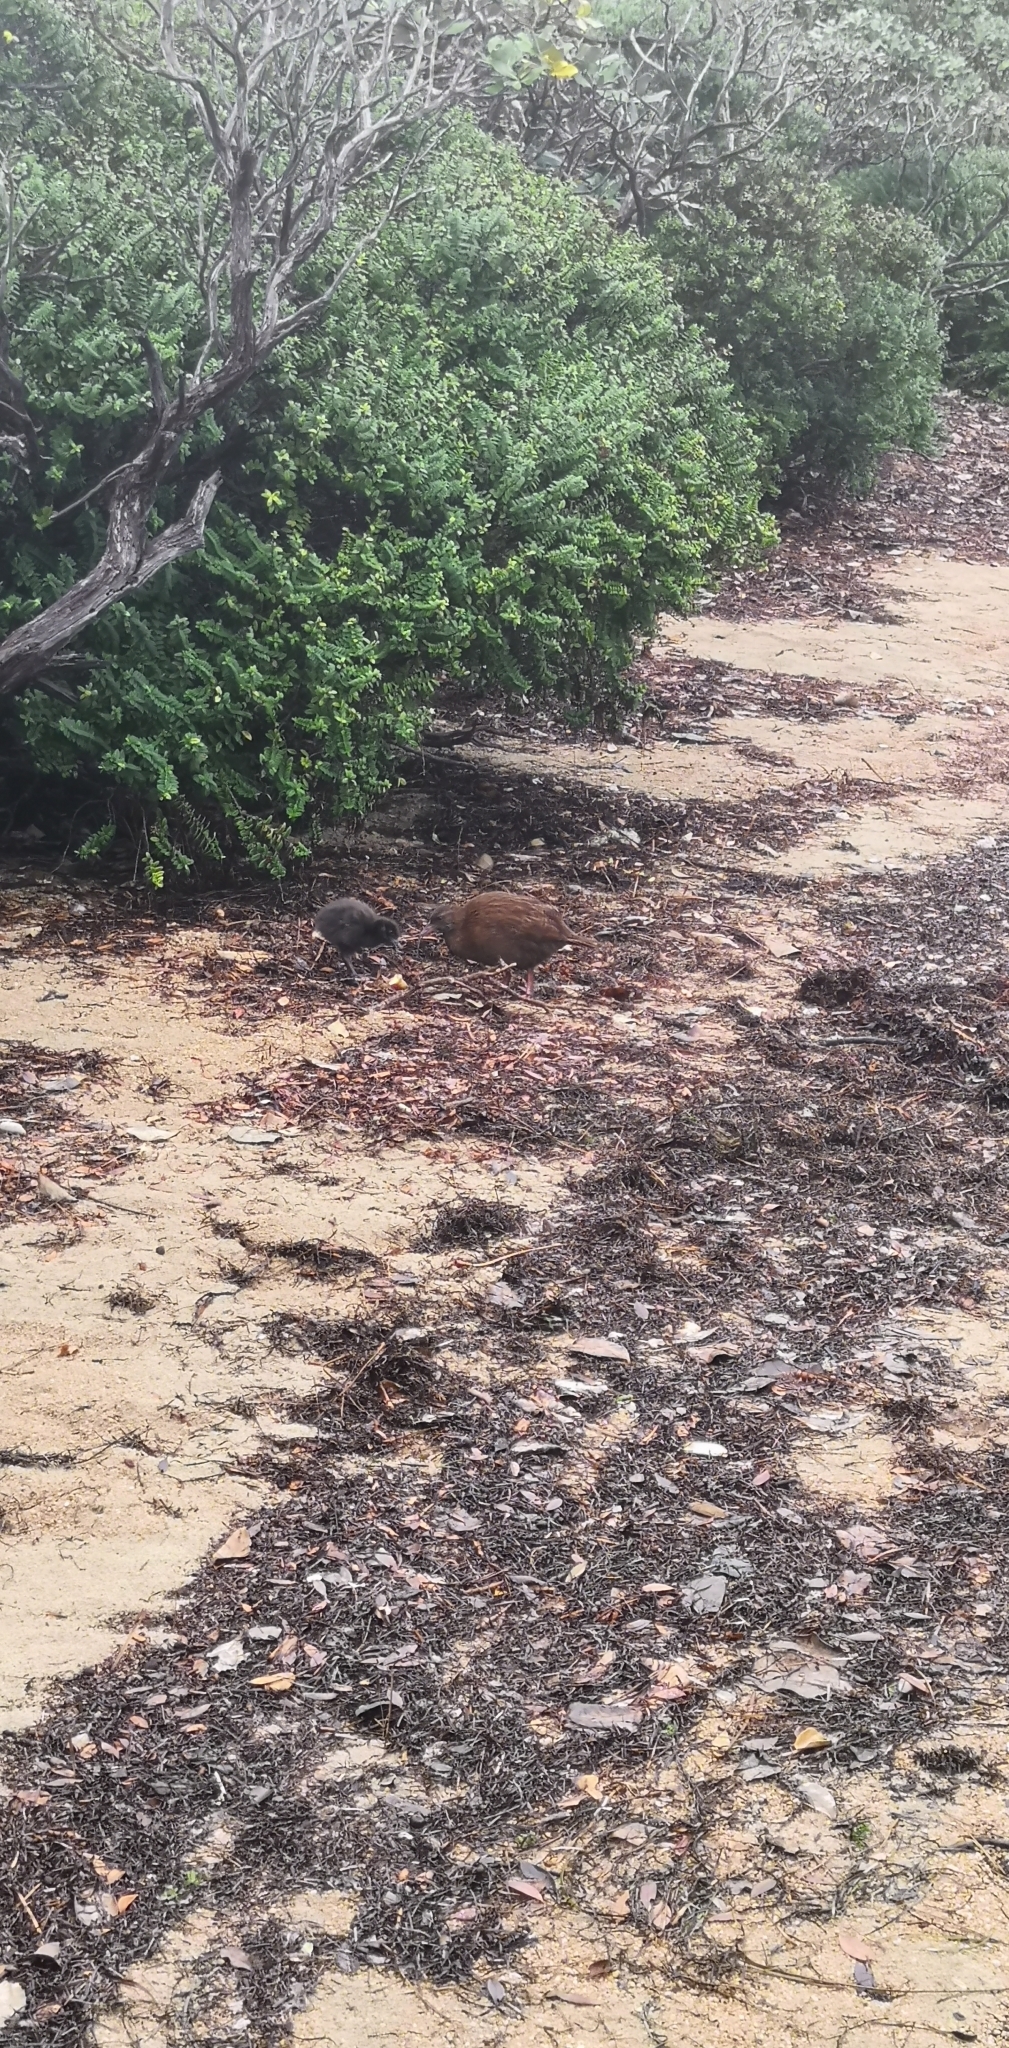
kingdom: Animalia
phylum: Chordata
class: Aves
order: Gruiformes
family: Rallidae
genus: Gallirallus
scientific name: Gallirallus australis
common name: Weka
